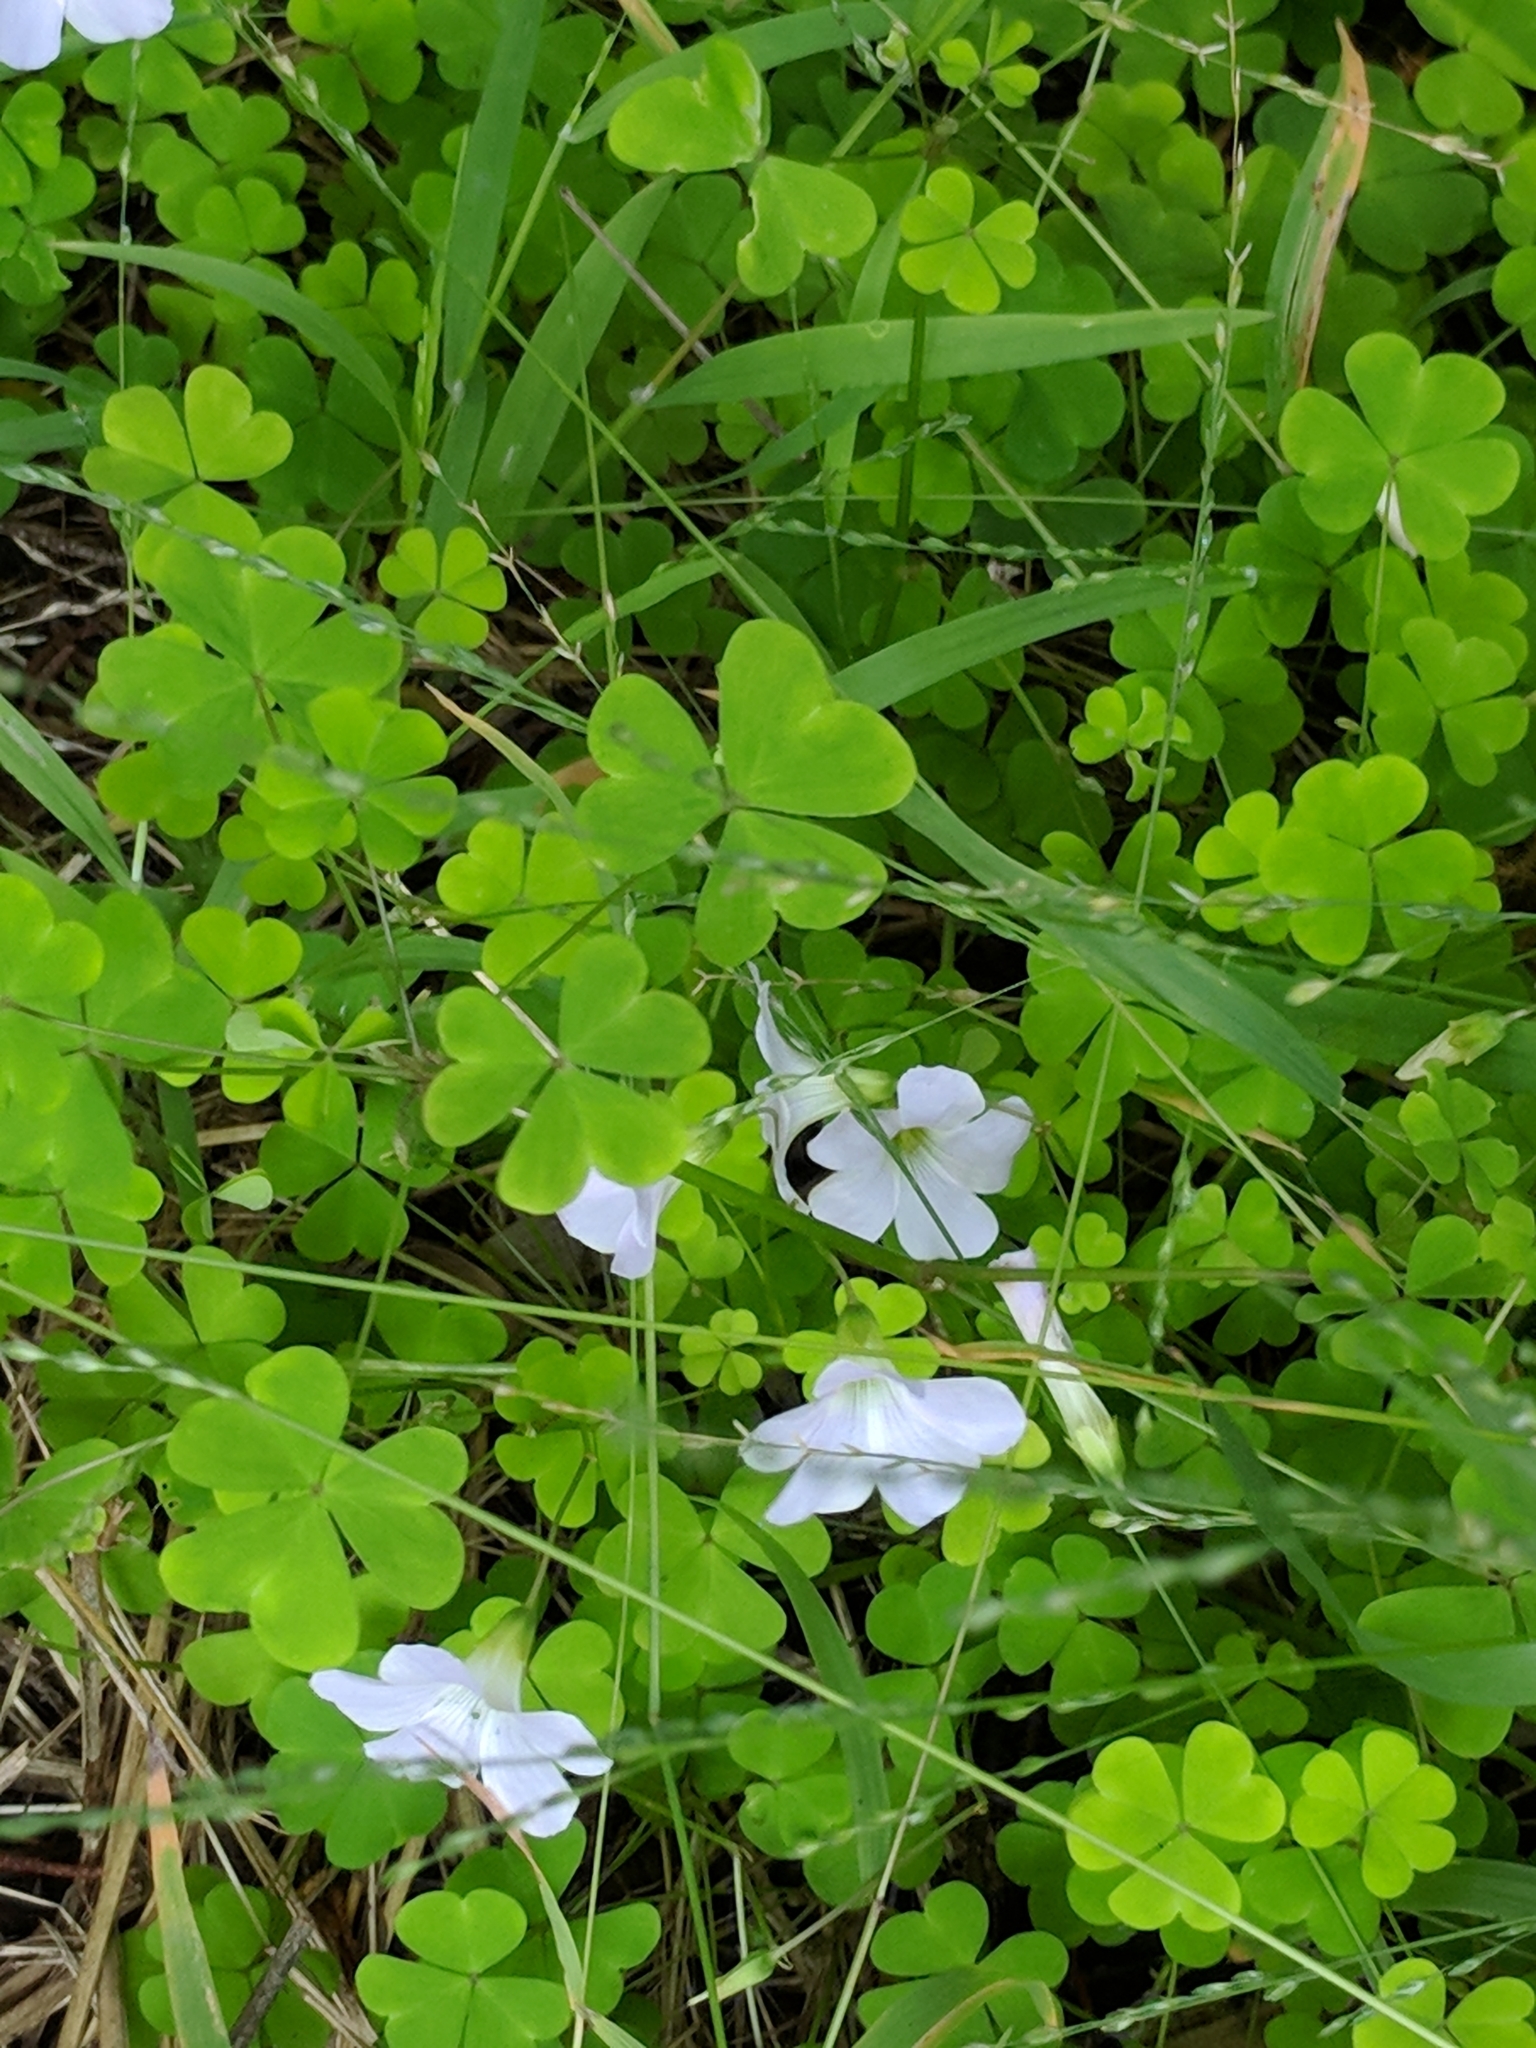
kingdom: Plantae
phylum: Tracheophyta
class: Magnoliopsida
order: Oxalidales
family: Oxalidaceae
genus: Oxalis
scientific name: Oxalis incarnata
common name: Pale pink-sorrel
